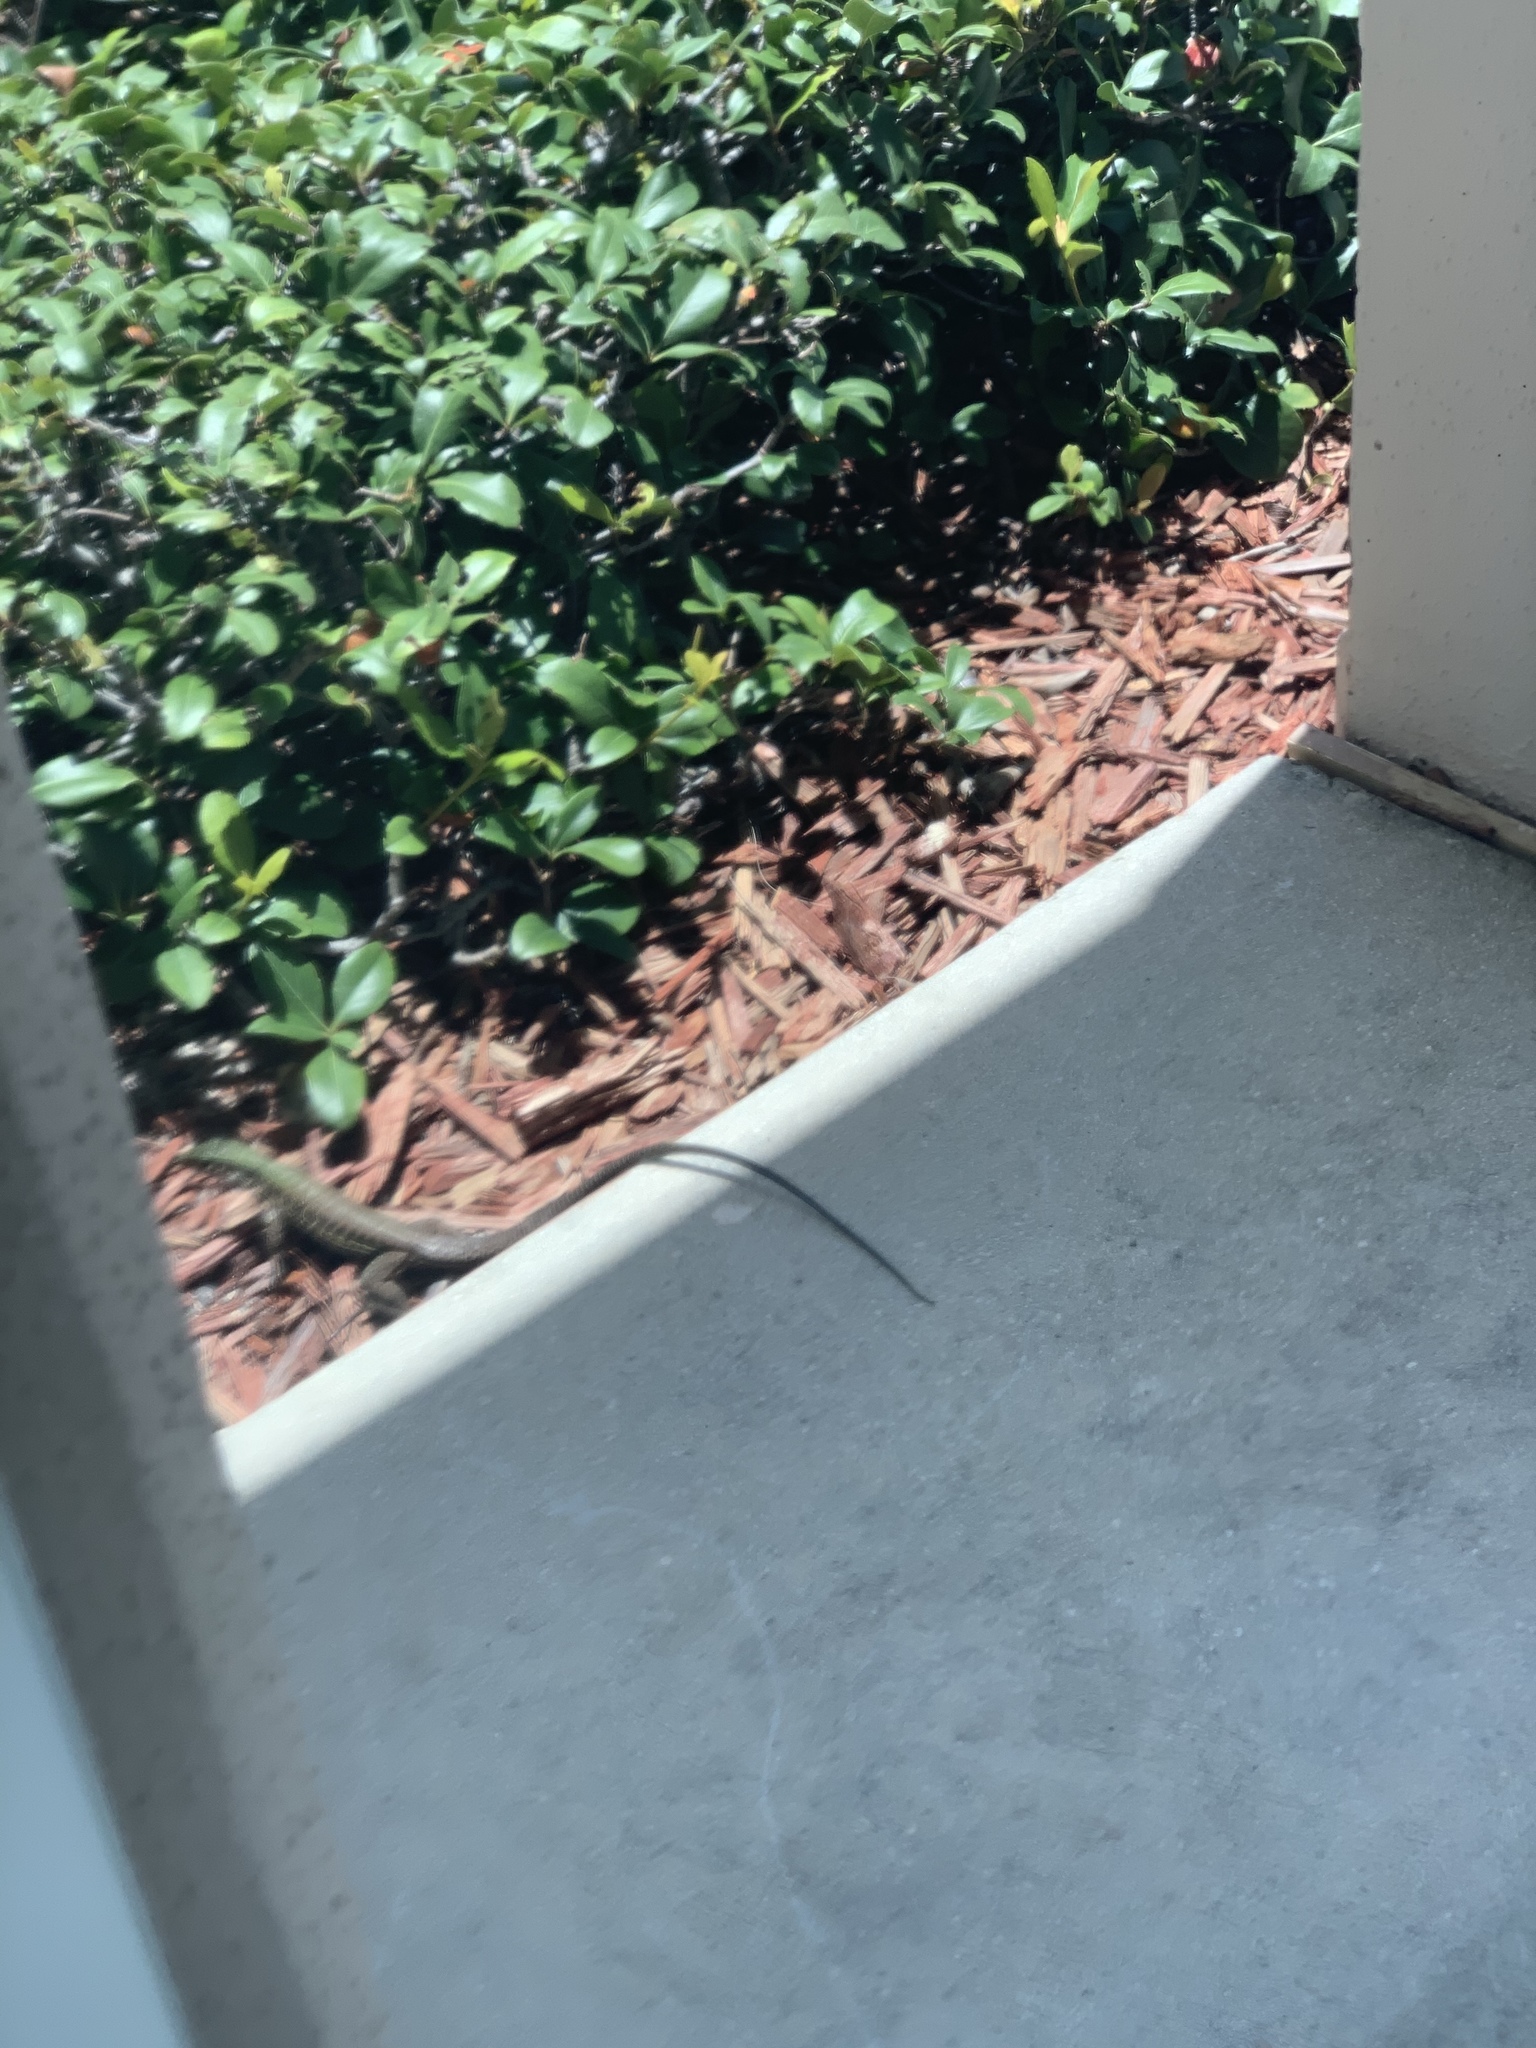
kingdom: Animalia
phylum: Chordata
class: Squamata
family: Teiidae
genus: Ameiva
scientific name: Ameiva ameiva
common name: Giant ameiva
